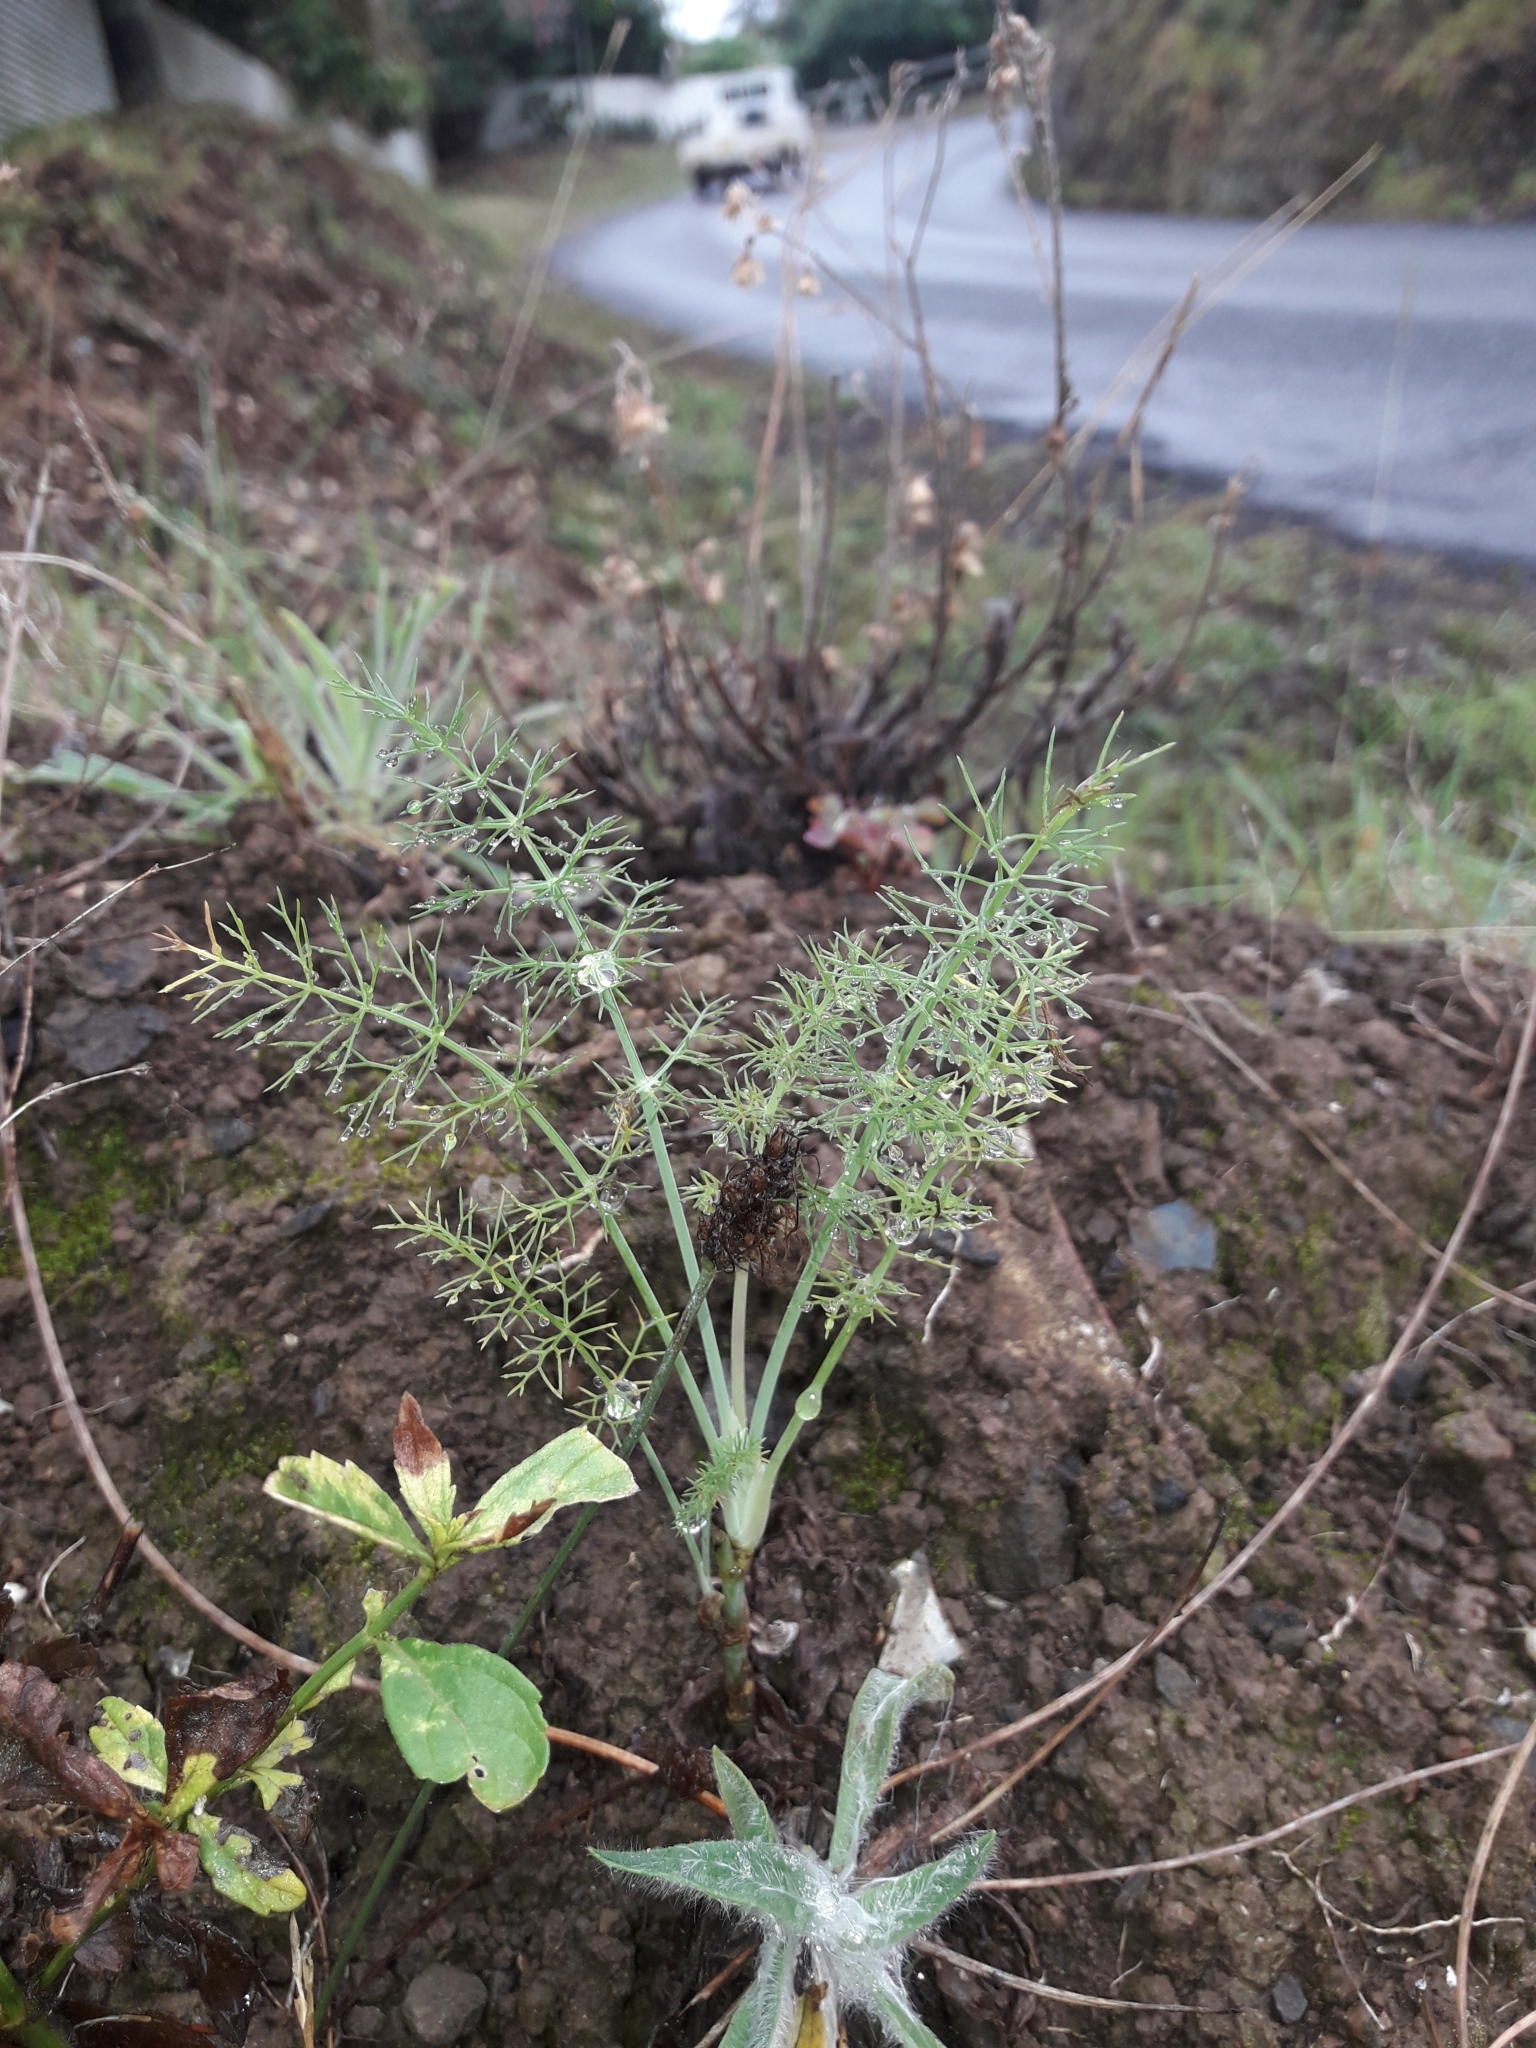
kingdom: Plantae
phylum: Tracheophyta
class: Magnoliopsida
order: Apiales
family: Apiaceae
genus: Foeniculum
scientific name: Foeniculum vulgare
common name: Fennel
